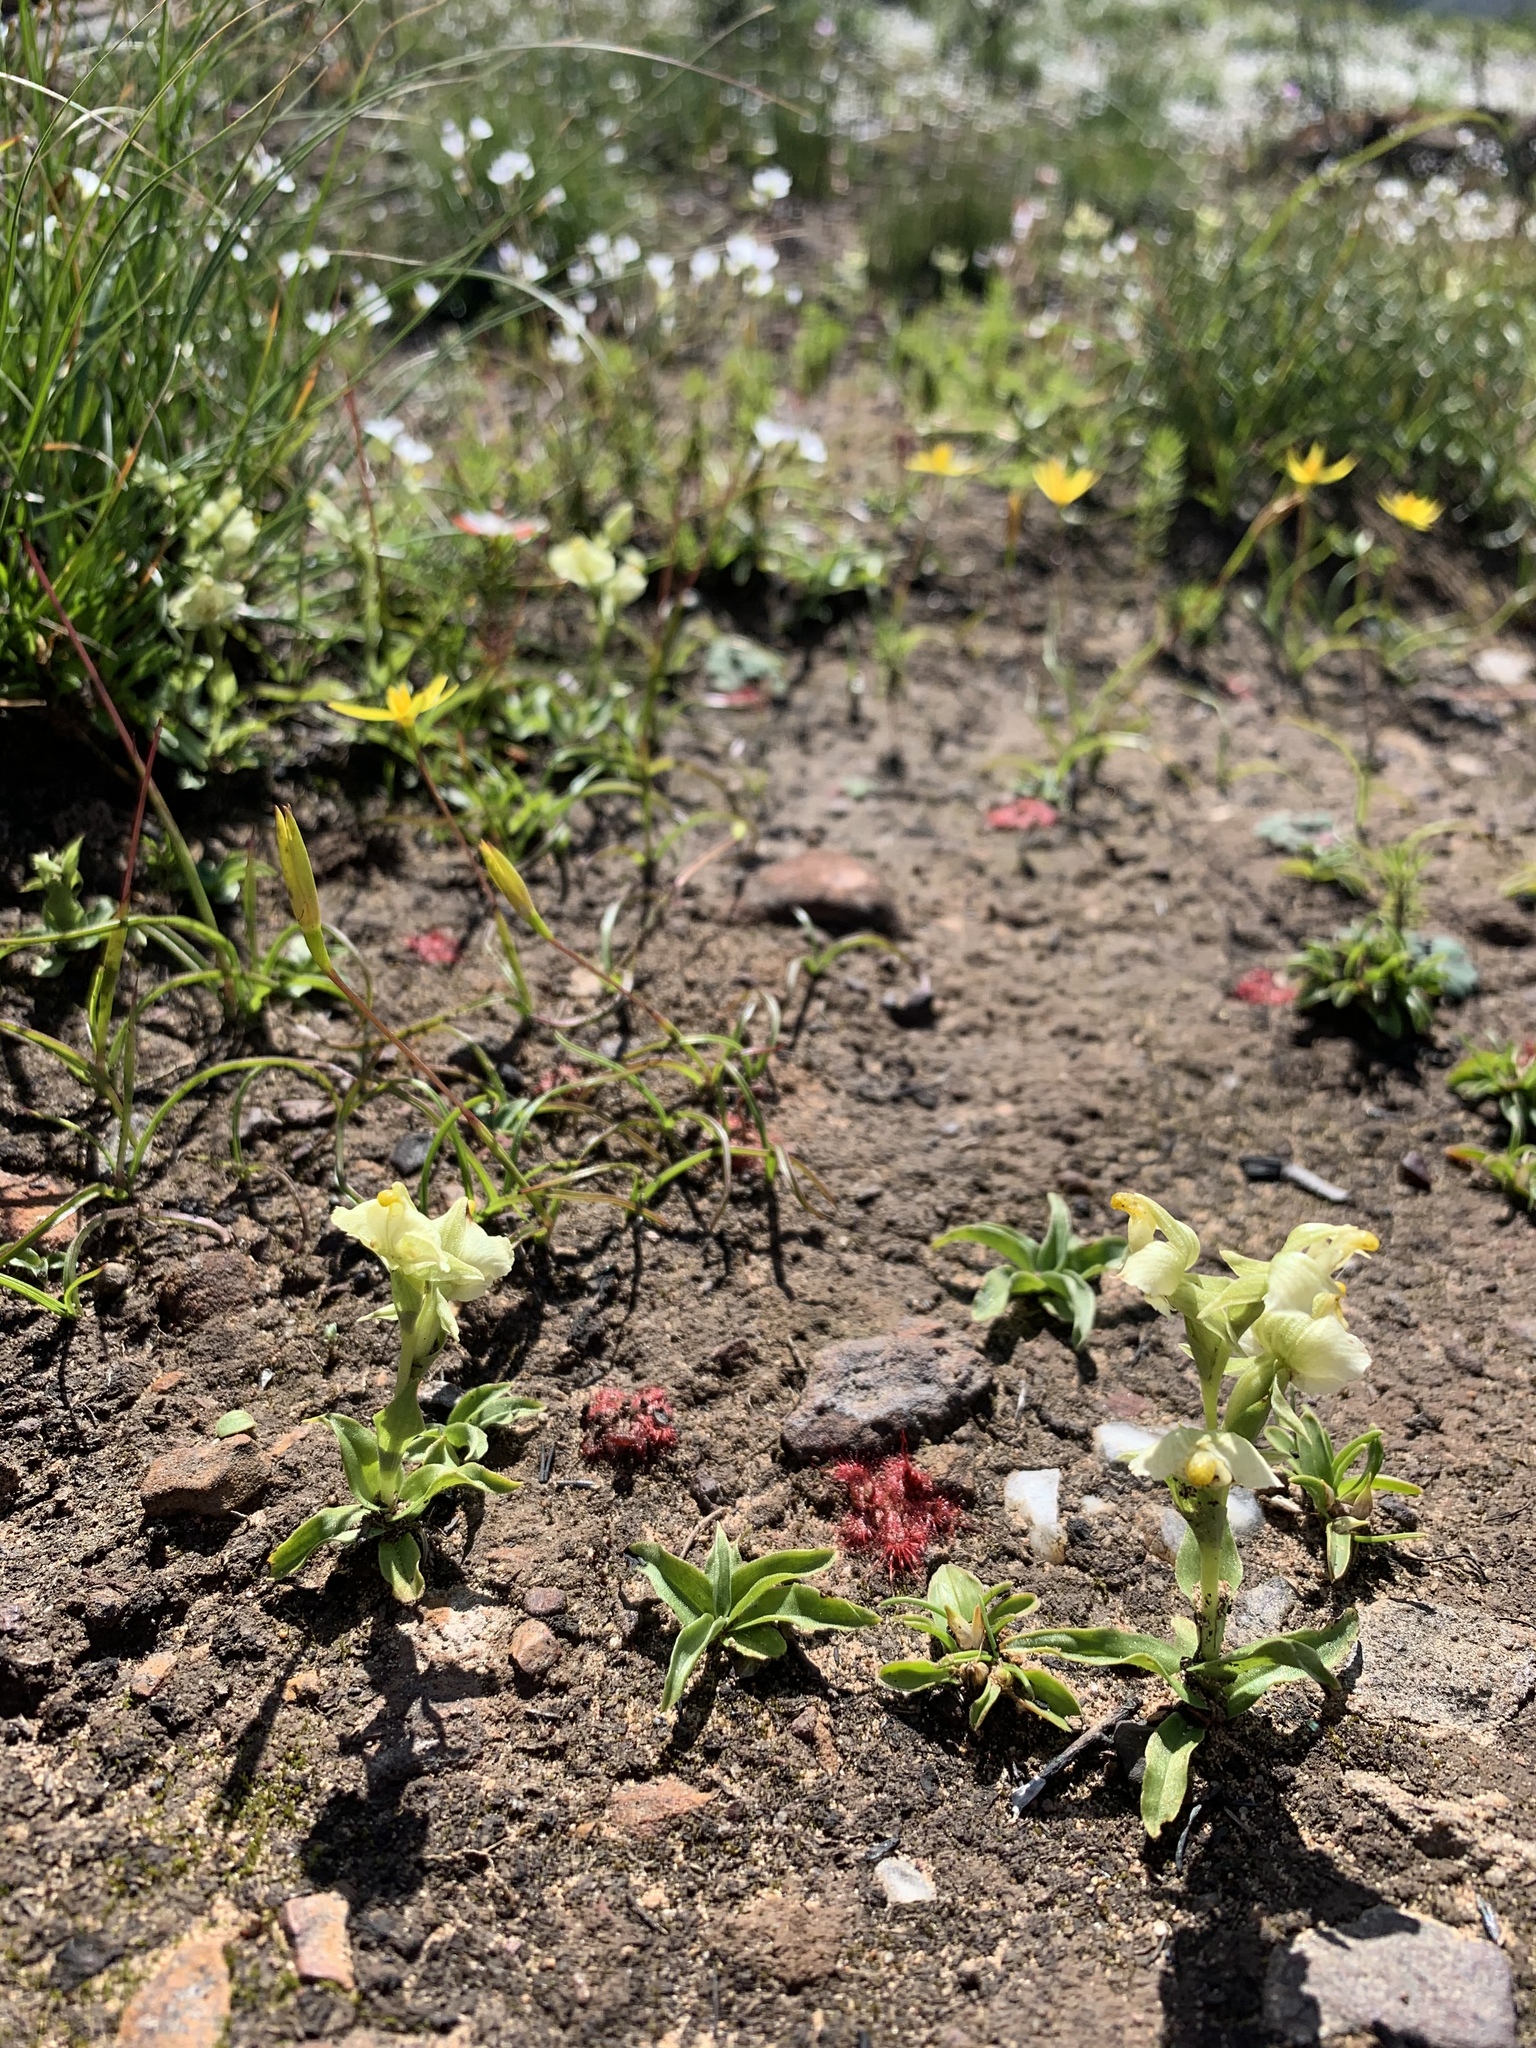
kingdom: Plantae
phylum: Tracheophyta
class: Liliopsida
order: Asparagales
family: Orchidaceae
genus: Pterygodium
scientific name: Pterygodium alatum
